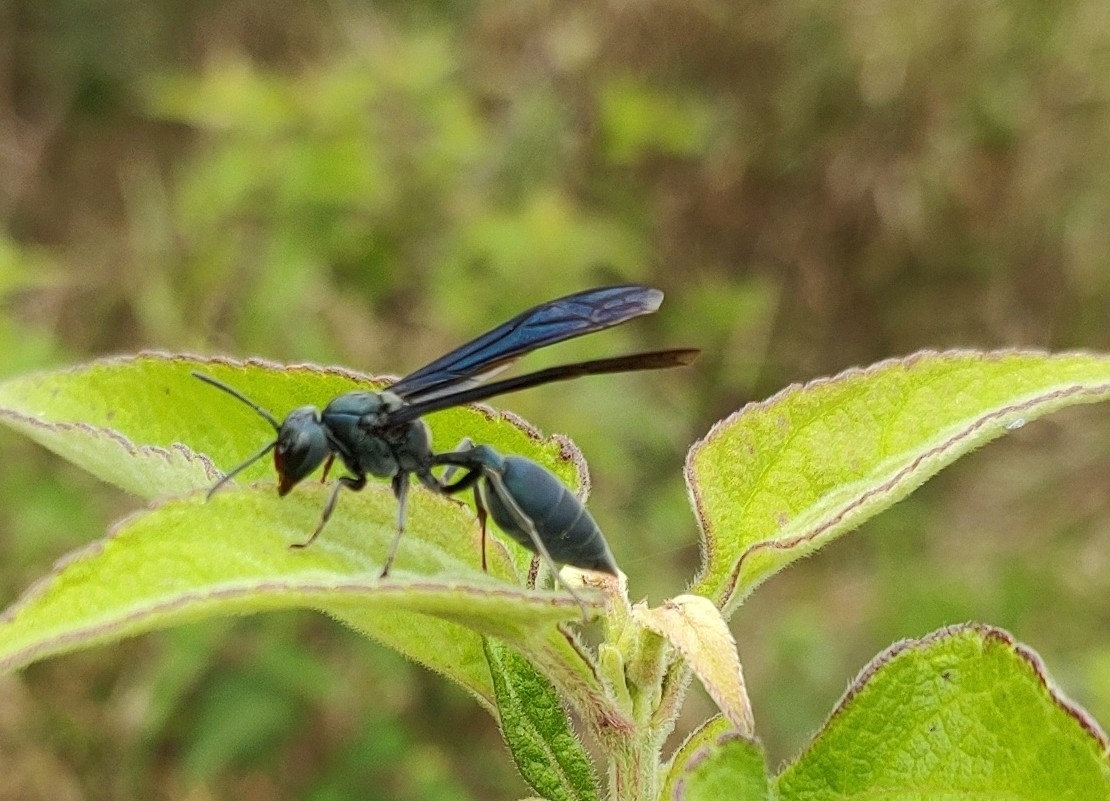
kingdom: Animalia
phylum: Arthropoda
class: Insecta
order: Hymenoptera
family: Vespidae
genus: Synoeca
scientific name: Synoeca cyanea
